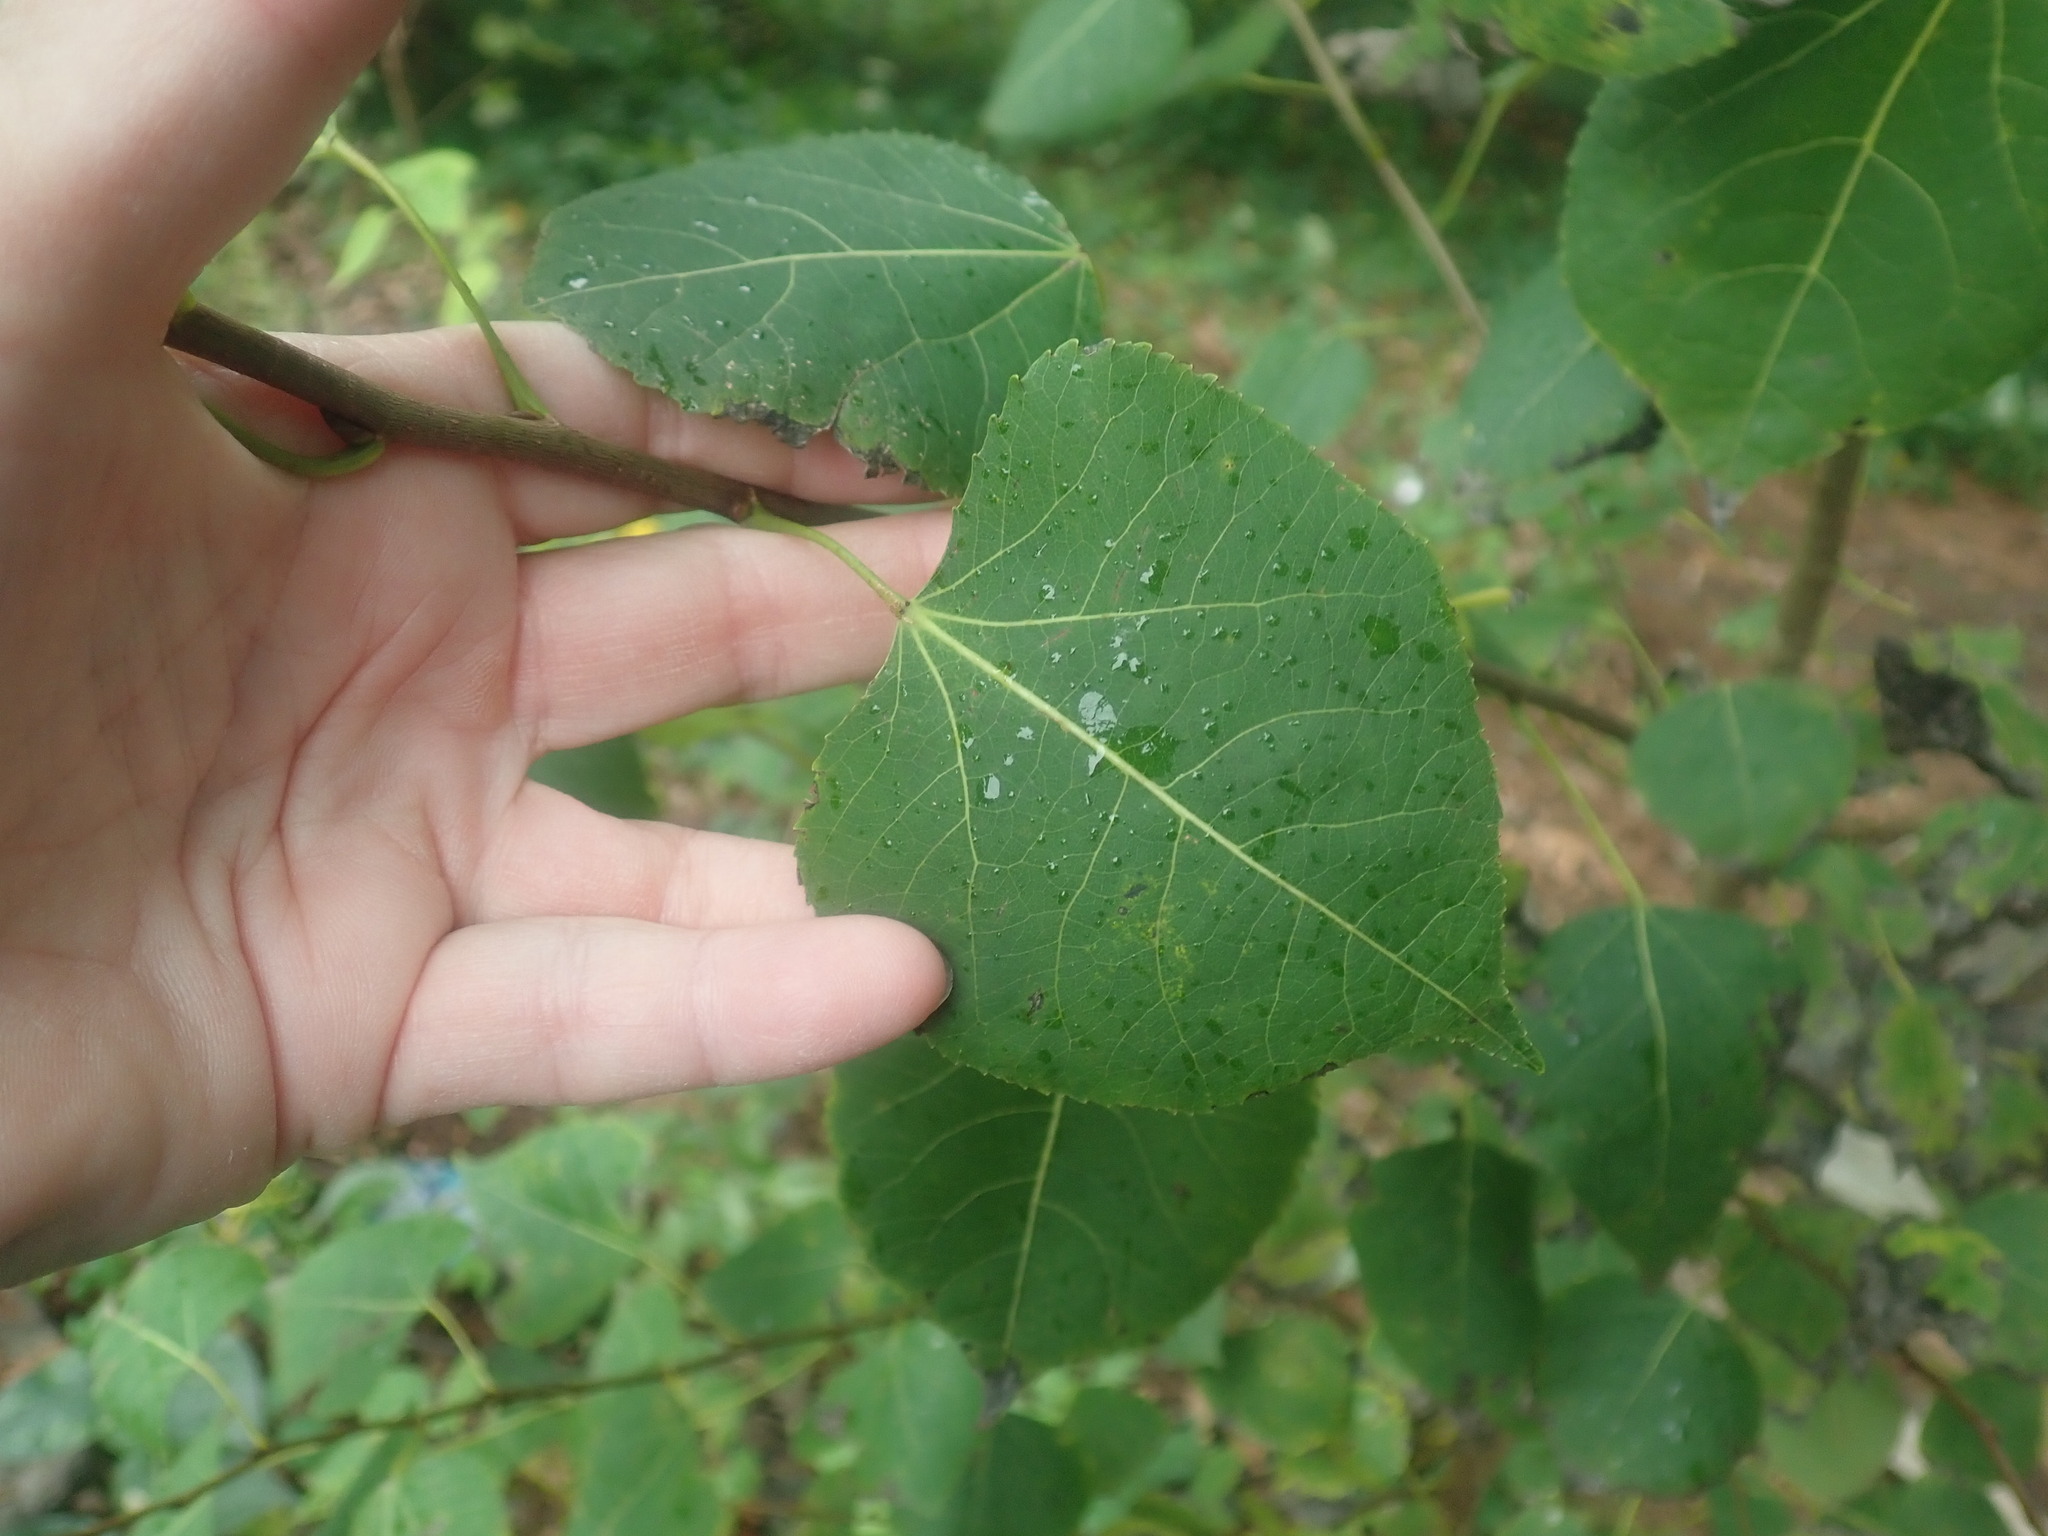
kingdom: Plantae
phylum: Tracheophyta
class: Magnoliopsida
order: Malpighiales
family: Salicaceae
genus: Populus
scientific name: Populus tremuloides
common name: Quaking aspen
